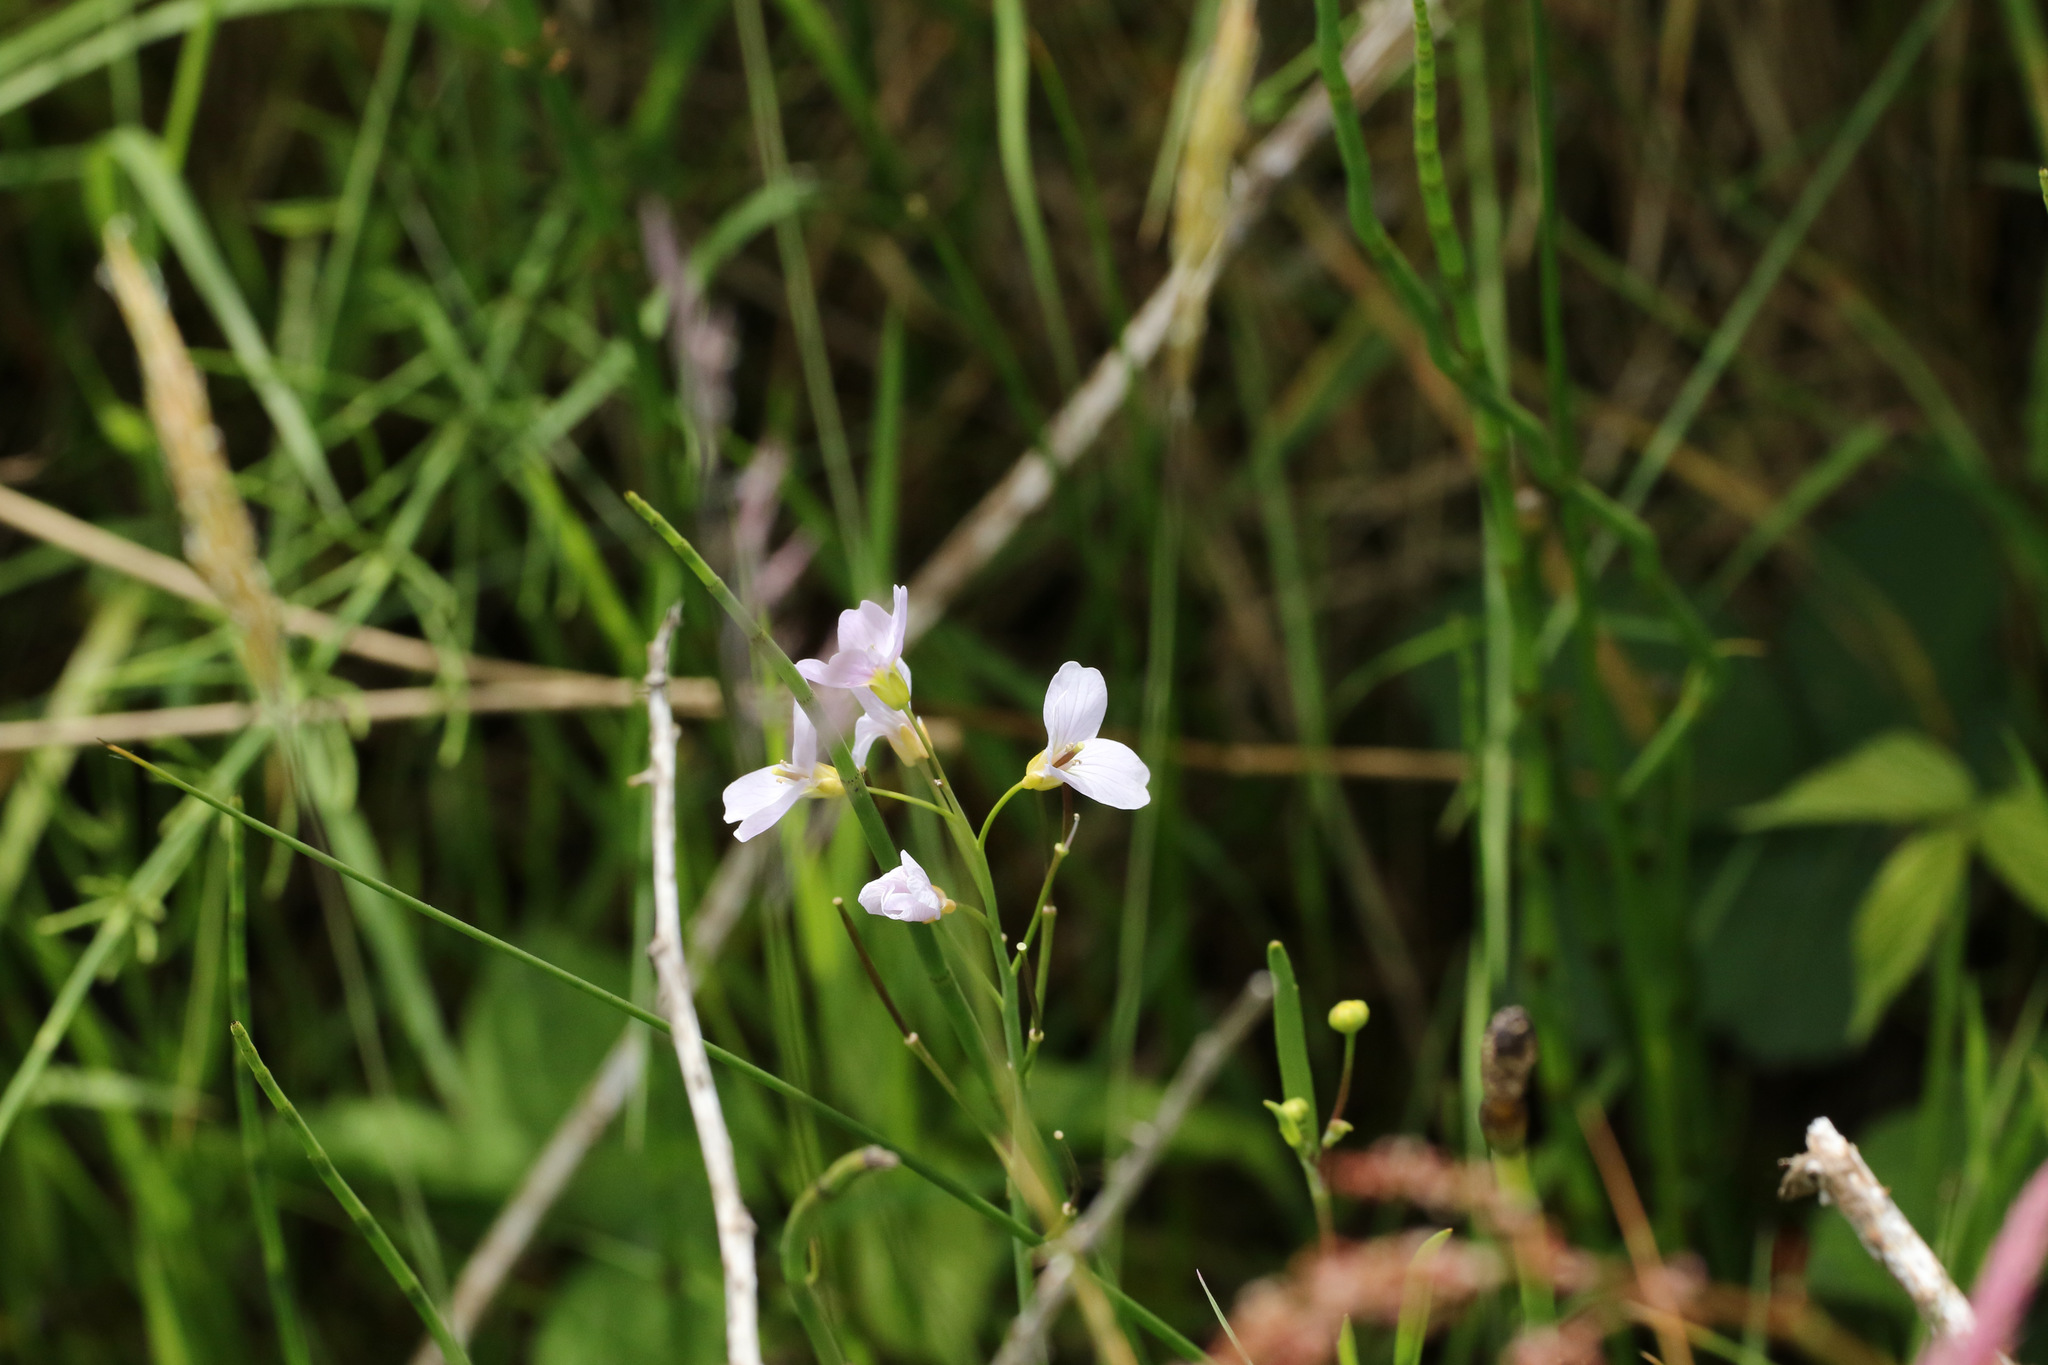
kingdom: Plantae
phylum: Tracheophyta
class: Magnoliopsida
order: Brassicales
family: Brassicaceae
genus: Cardamine
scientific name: Cardamine pratensis
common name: Cuckoo flower
